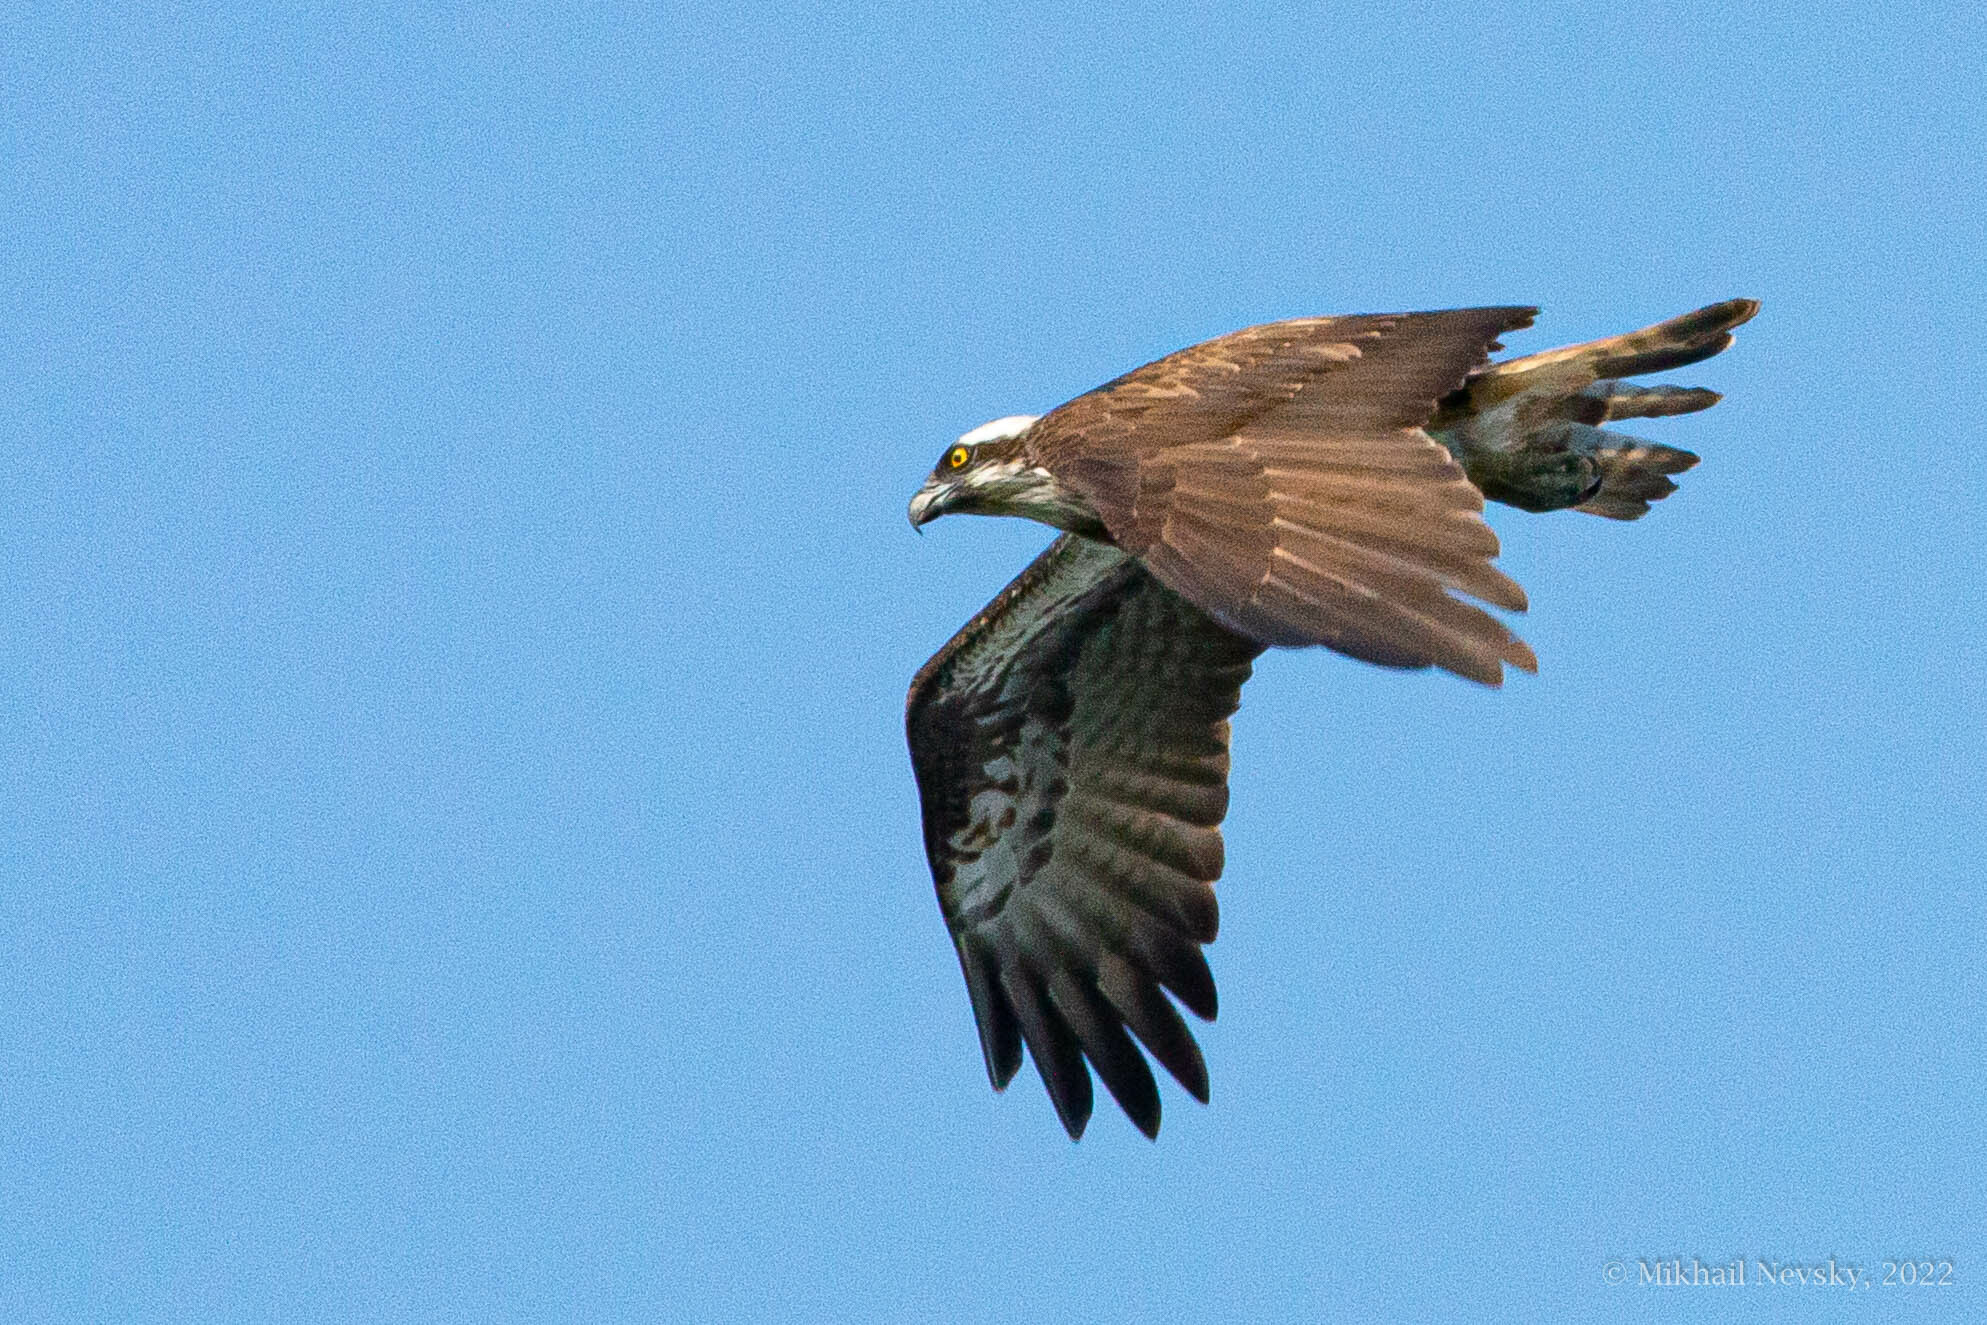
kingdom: Animalia
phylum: Chordata
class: Aves
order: Accipitriformes
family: Pandionidae
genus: Pandion
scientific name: Pandion haliaetus
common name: Osprey
